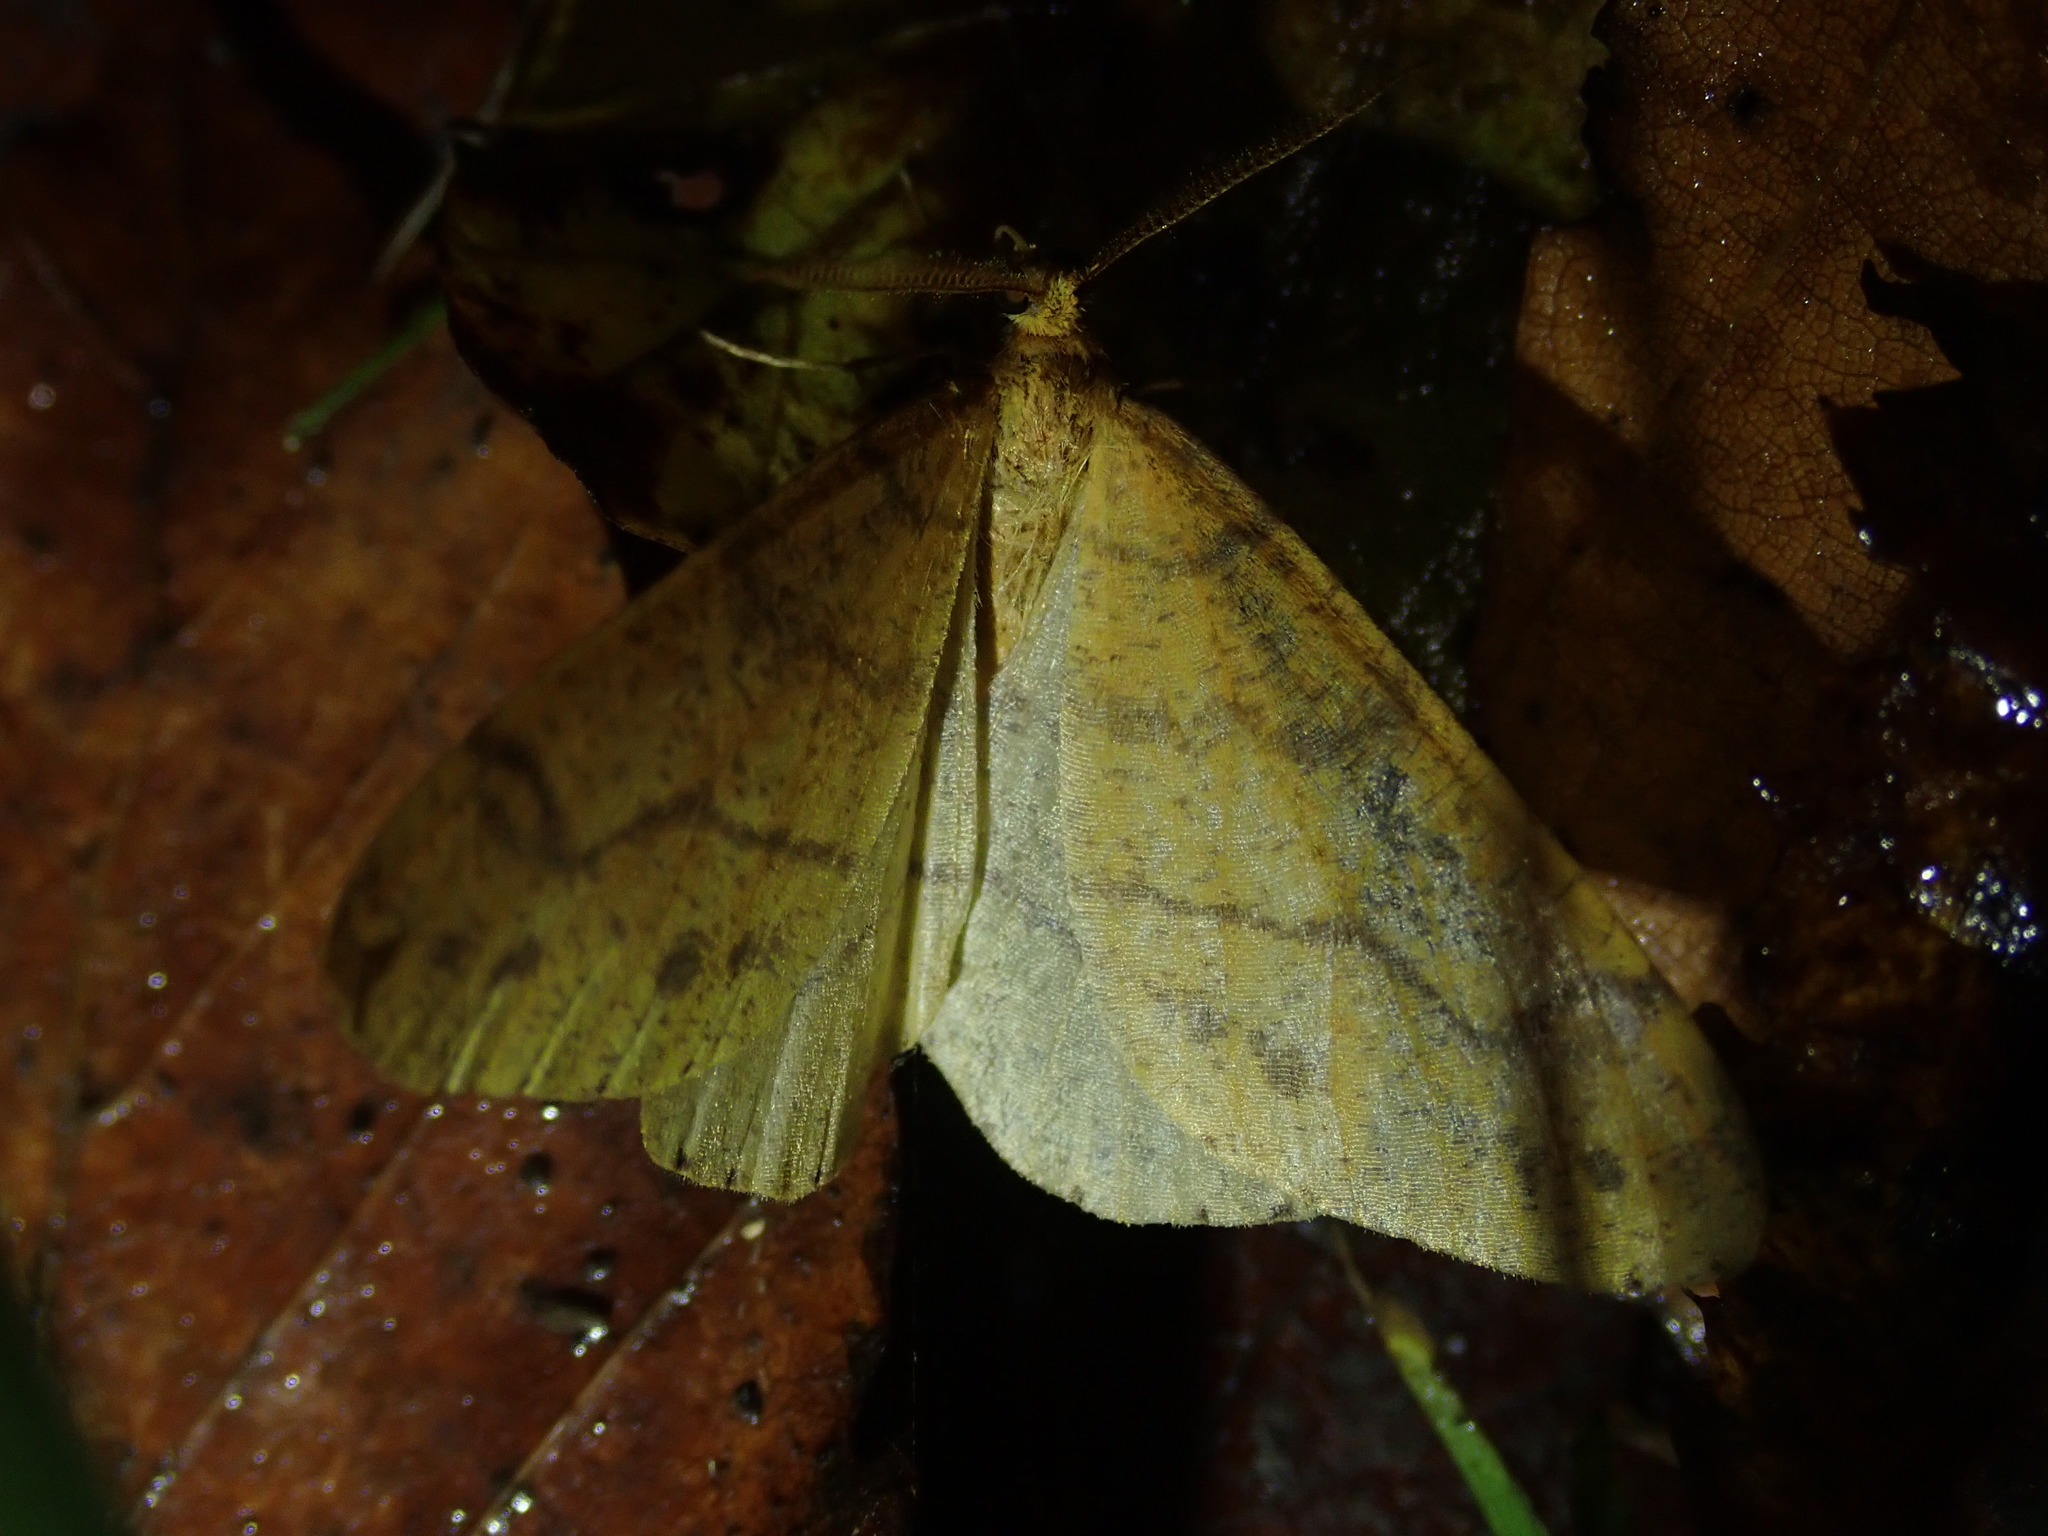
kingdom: Animalia
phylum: Arthropoda
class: Insecta
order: Lepidoptera
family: Geometridae
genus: Agriopis
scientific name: Agriopis aurantiaria
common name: Scarce umber
